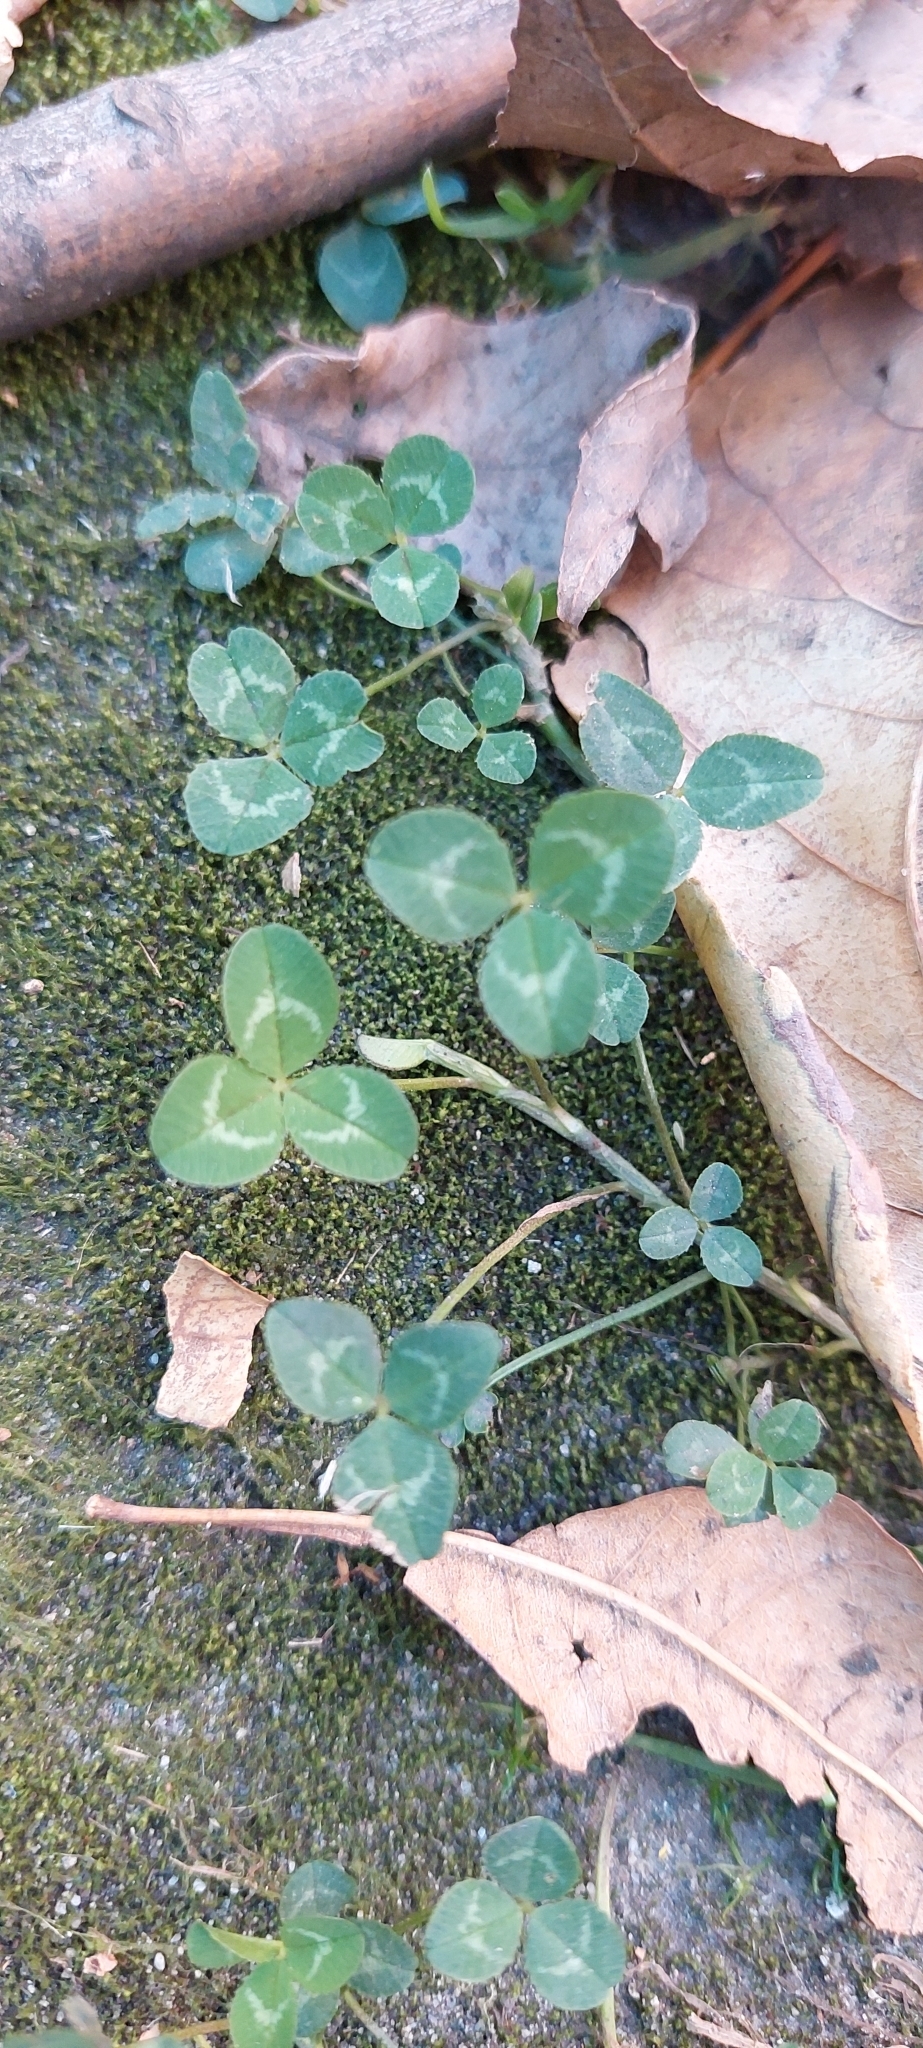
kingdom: Plantae
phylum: Tracheophyta
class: Magnoliopsida
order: Fabales
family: Fabaceae
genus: Trifolium
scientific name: Trifolium repens
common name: White clover
